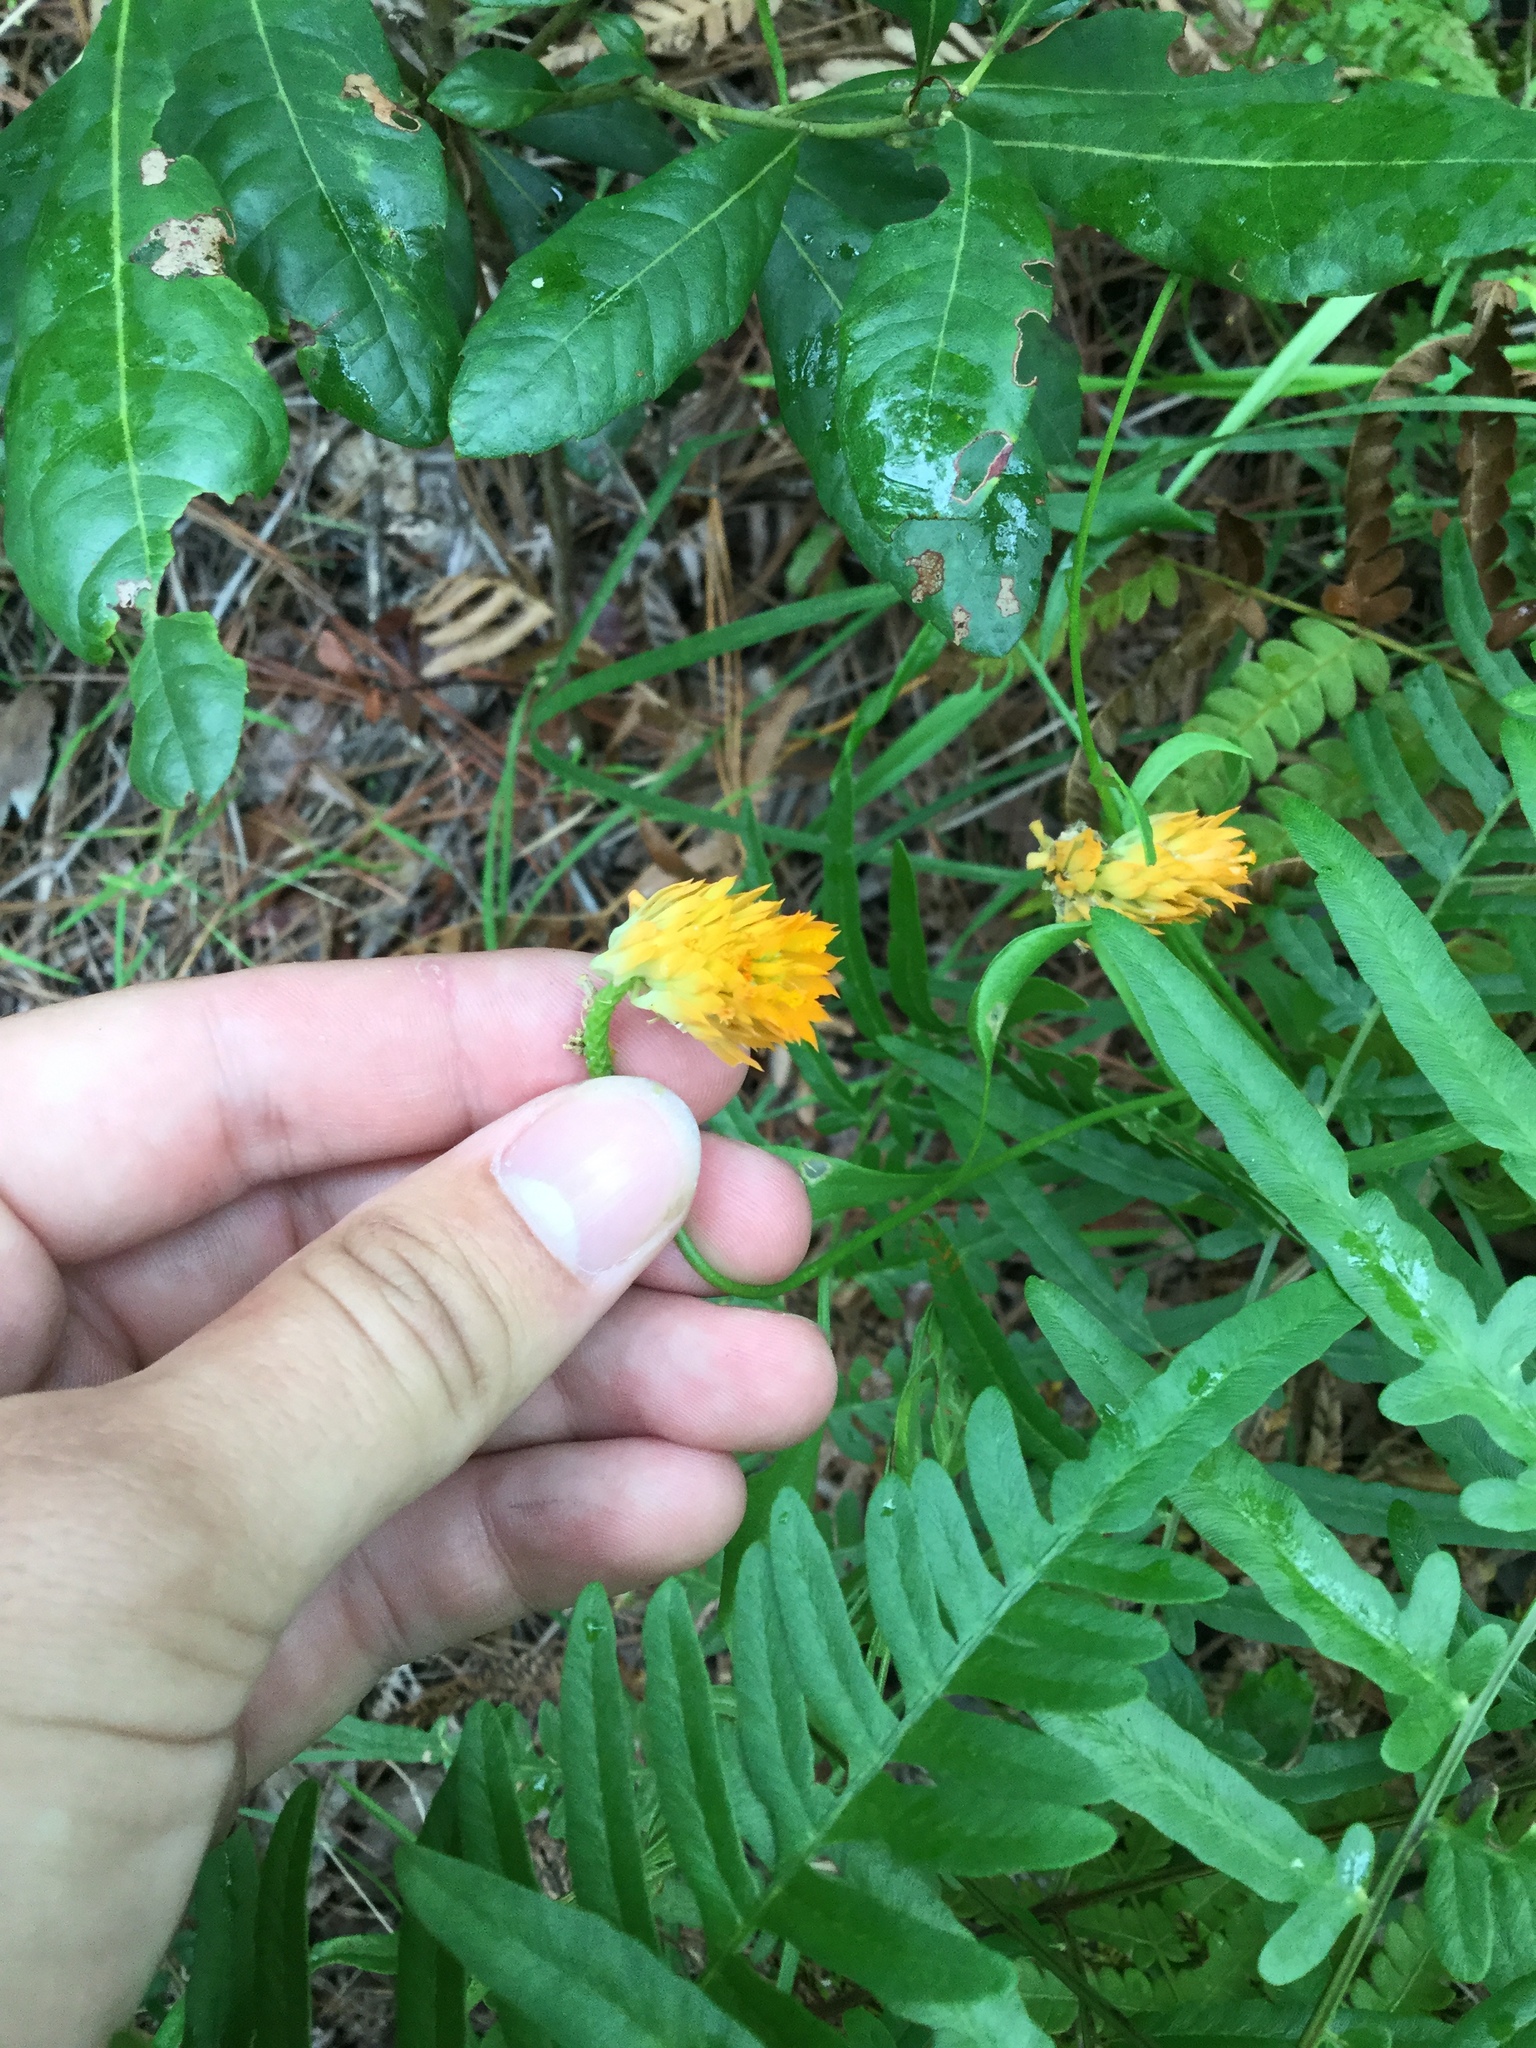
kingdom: Plantae
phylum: Tracheophyta
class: Magnoliopsida
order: Fabales
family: Polygalaceae
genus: Polygala
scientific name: Polygala lutea
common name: Orange milkwort
